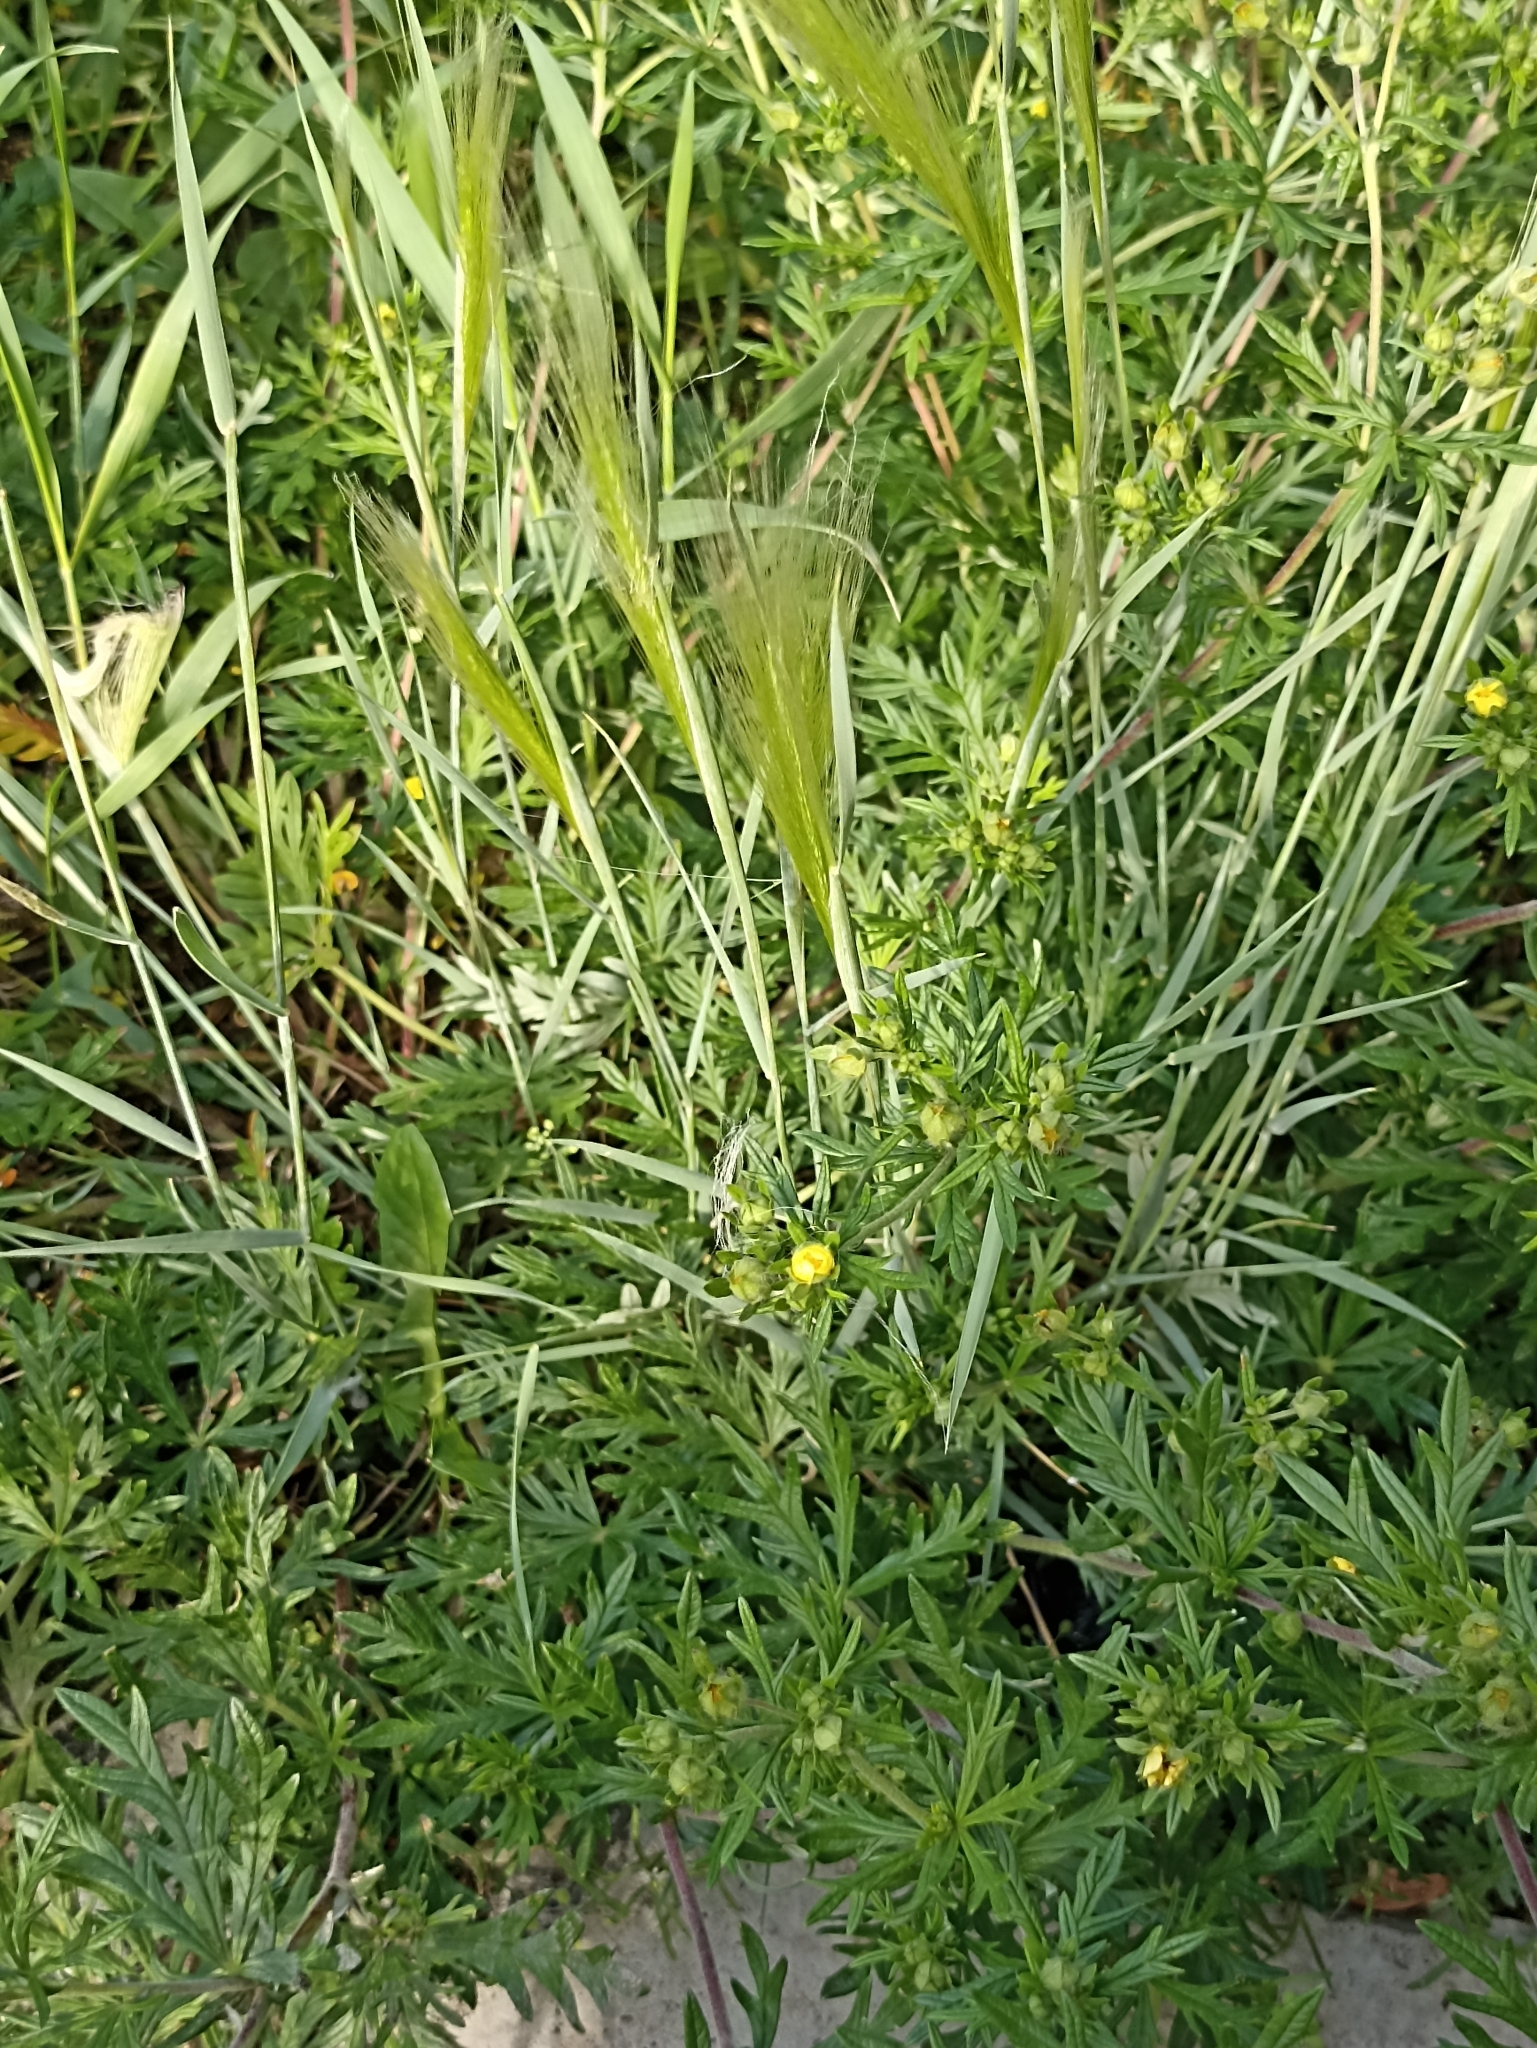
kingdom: Plantae
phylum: Tracheophyta
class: Magnoliopsida
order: Rosales
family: Rosaceae
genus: Potentilla
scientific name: Potentilla argentea
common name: Hoary cinquefoil
